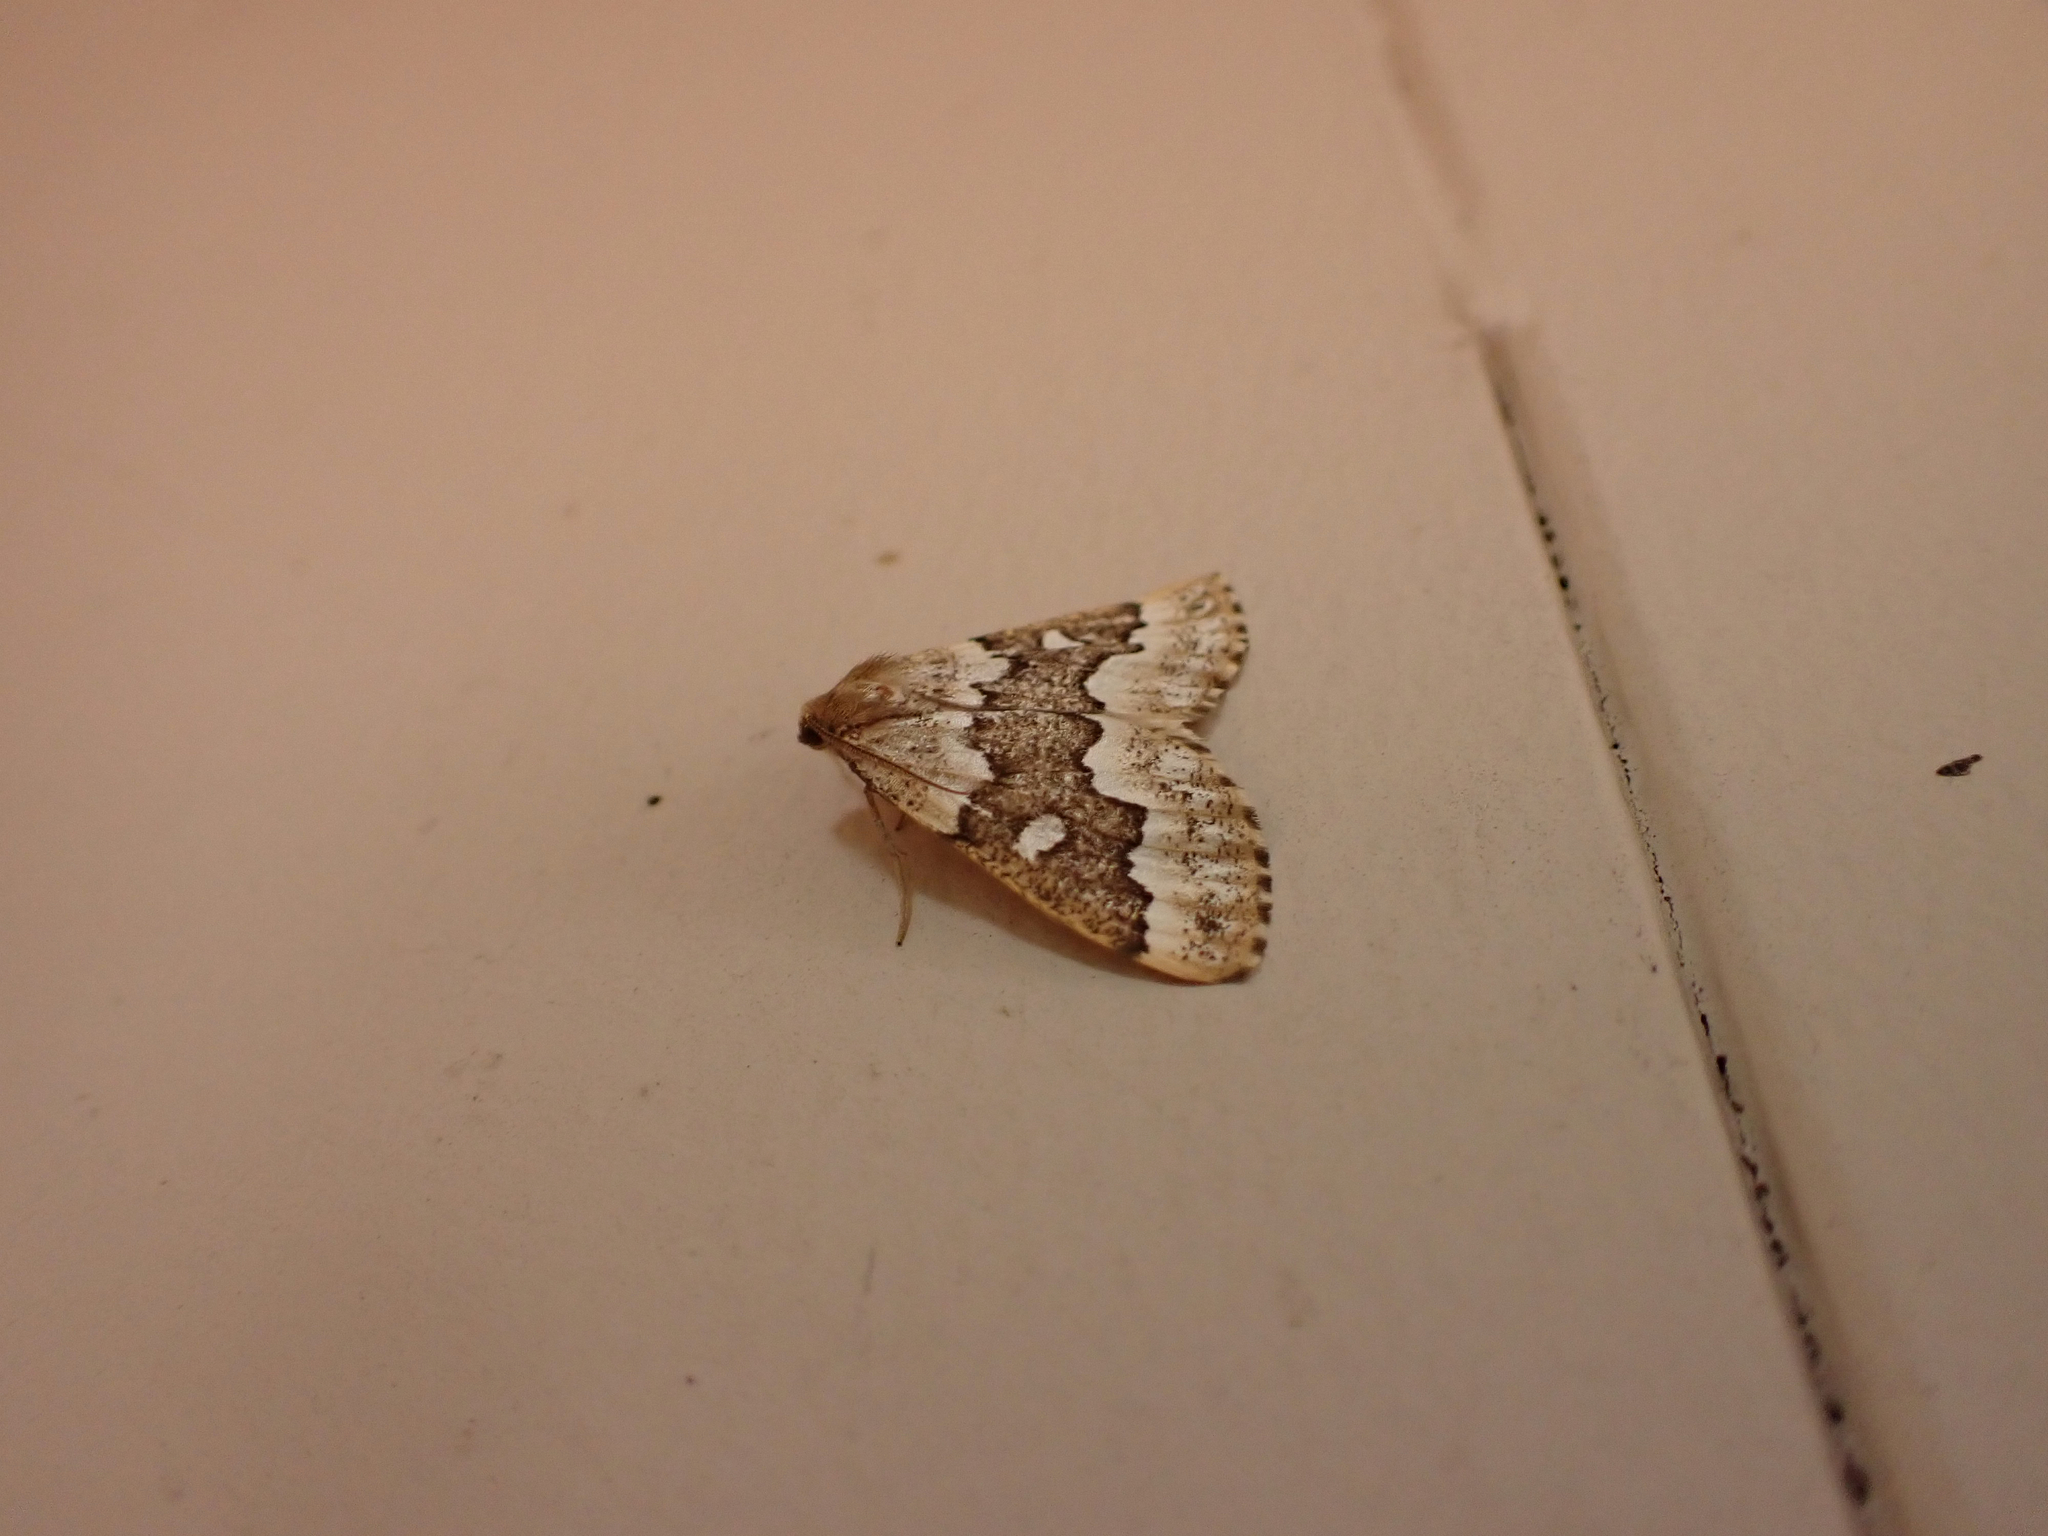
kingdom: Animalia
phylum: Arthropoda
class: Insecta
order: Lepidoptera
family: Geometridae
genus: Caripeta
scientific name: Caripeta divisata
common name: Gray spruce looper
